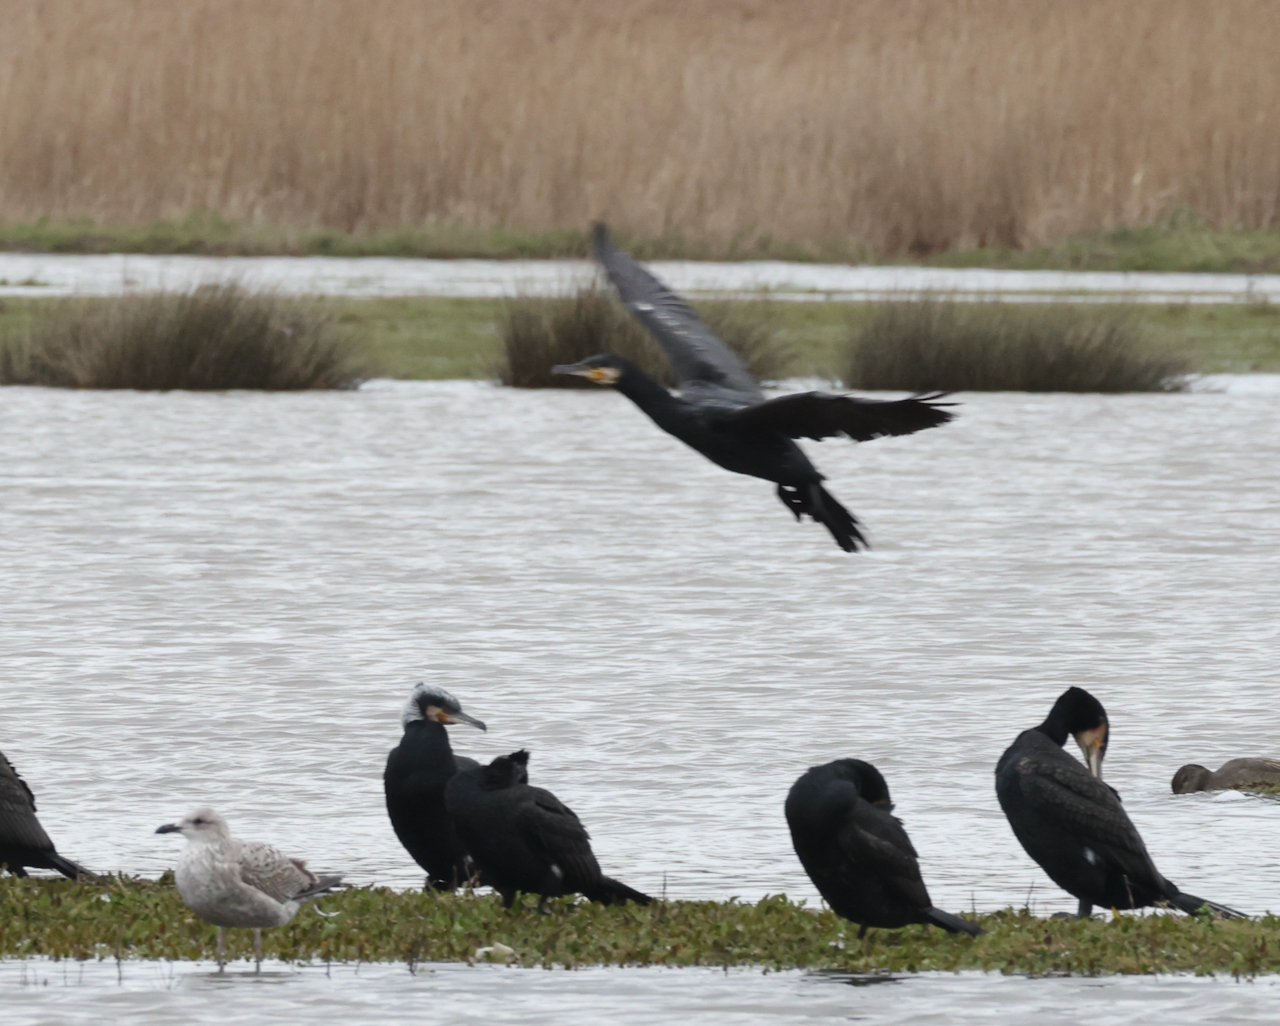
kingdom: Animalia
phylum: Chordata
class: Aves
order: Suliformes
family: Phalacrocoracidae
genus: Phalacrocorax
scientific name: Phalacrocorax carbo
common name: Great cormorant
